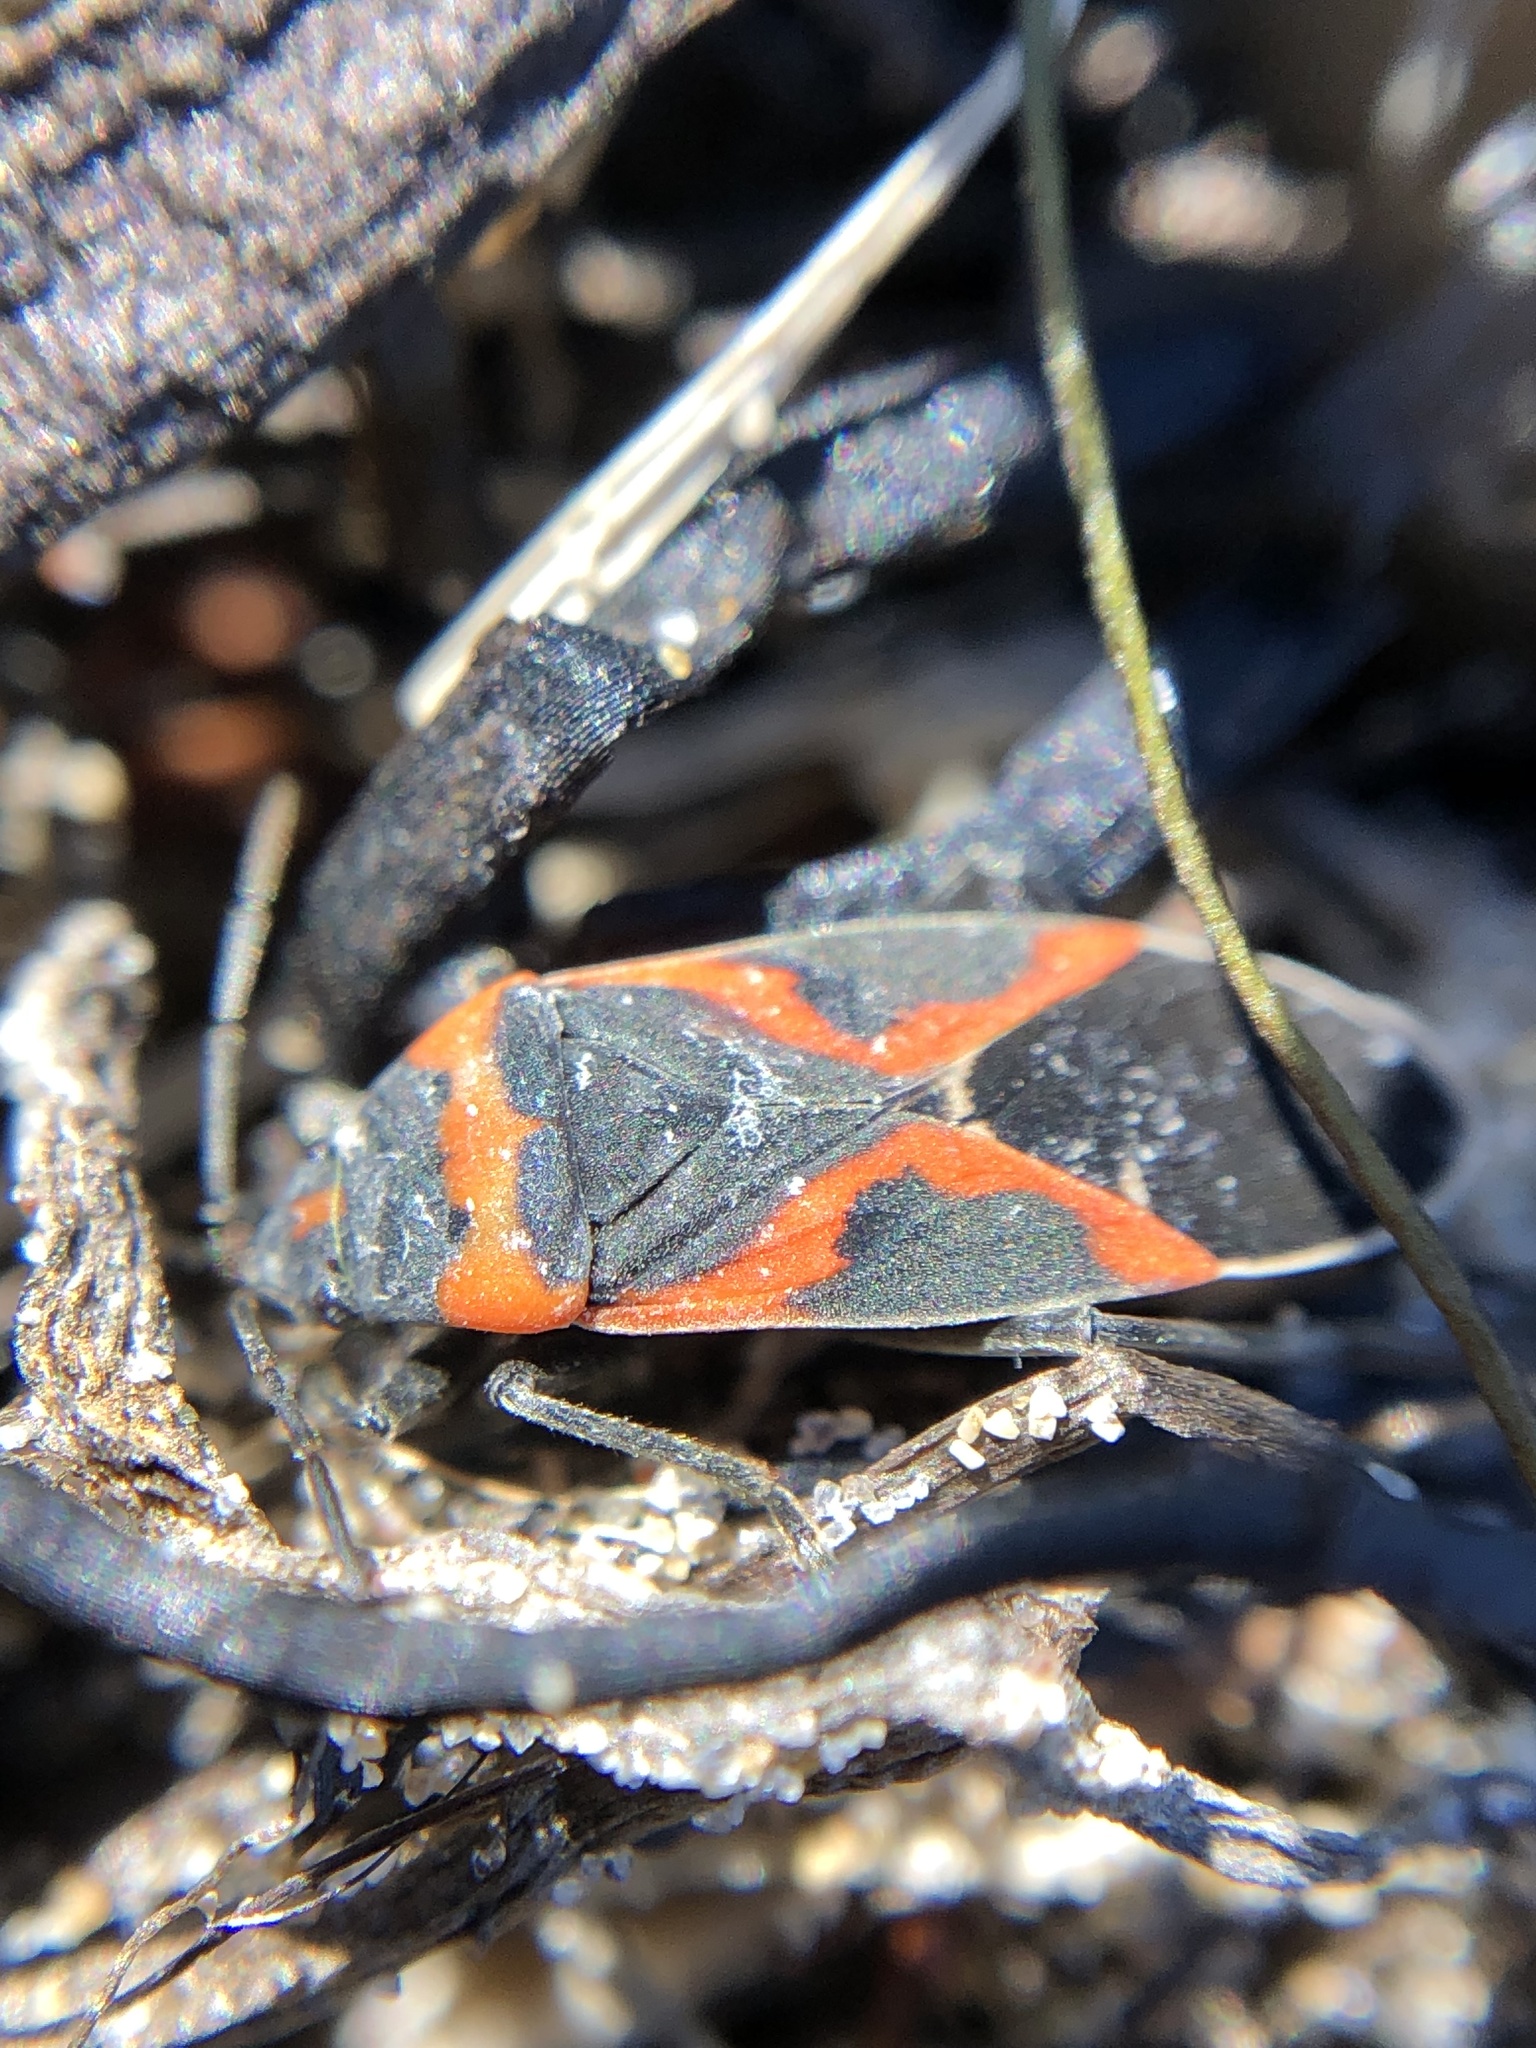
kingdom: Animalia
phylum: Arthropoda
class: Insecta
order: Hemiptera
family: Lygaeidae
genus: Lygaeus
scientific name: Lygaeus kalmii
